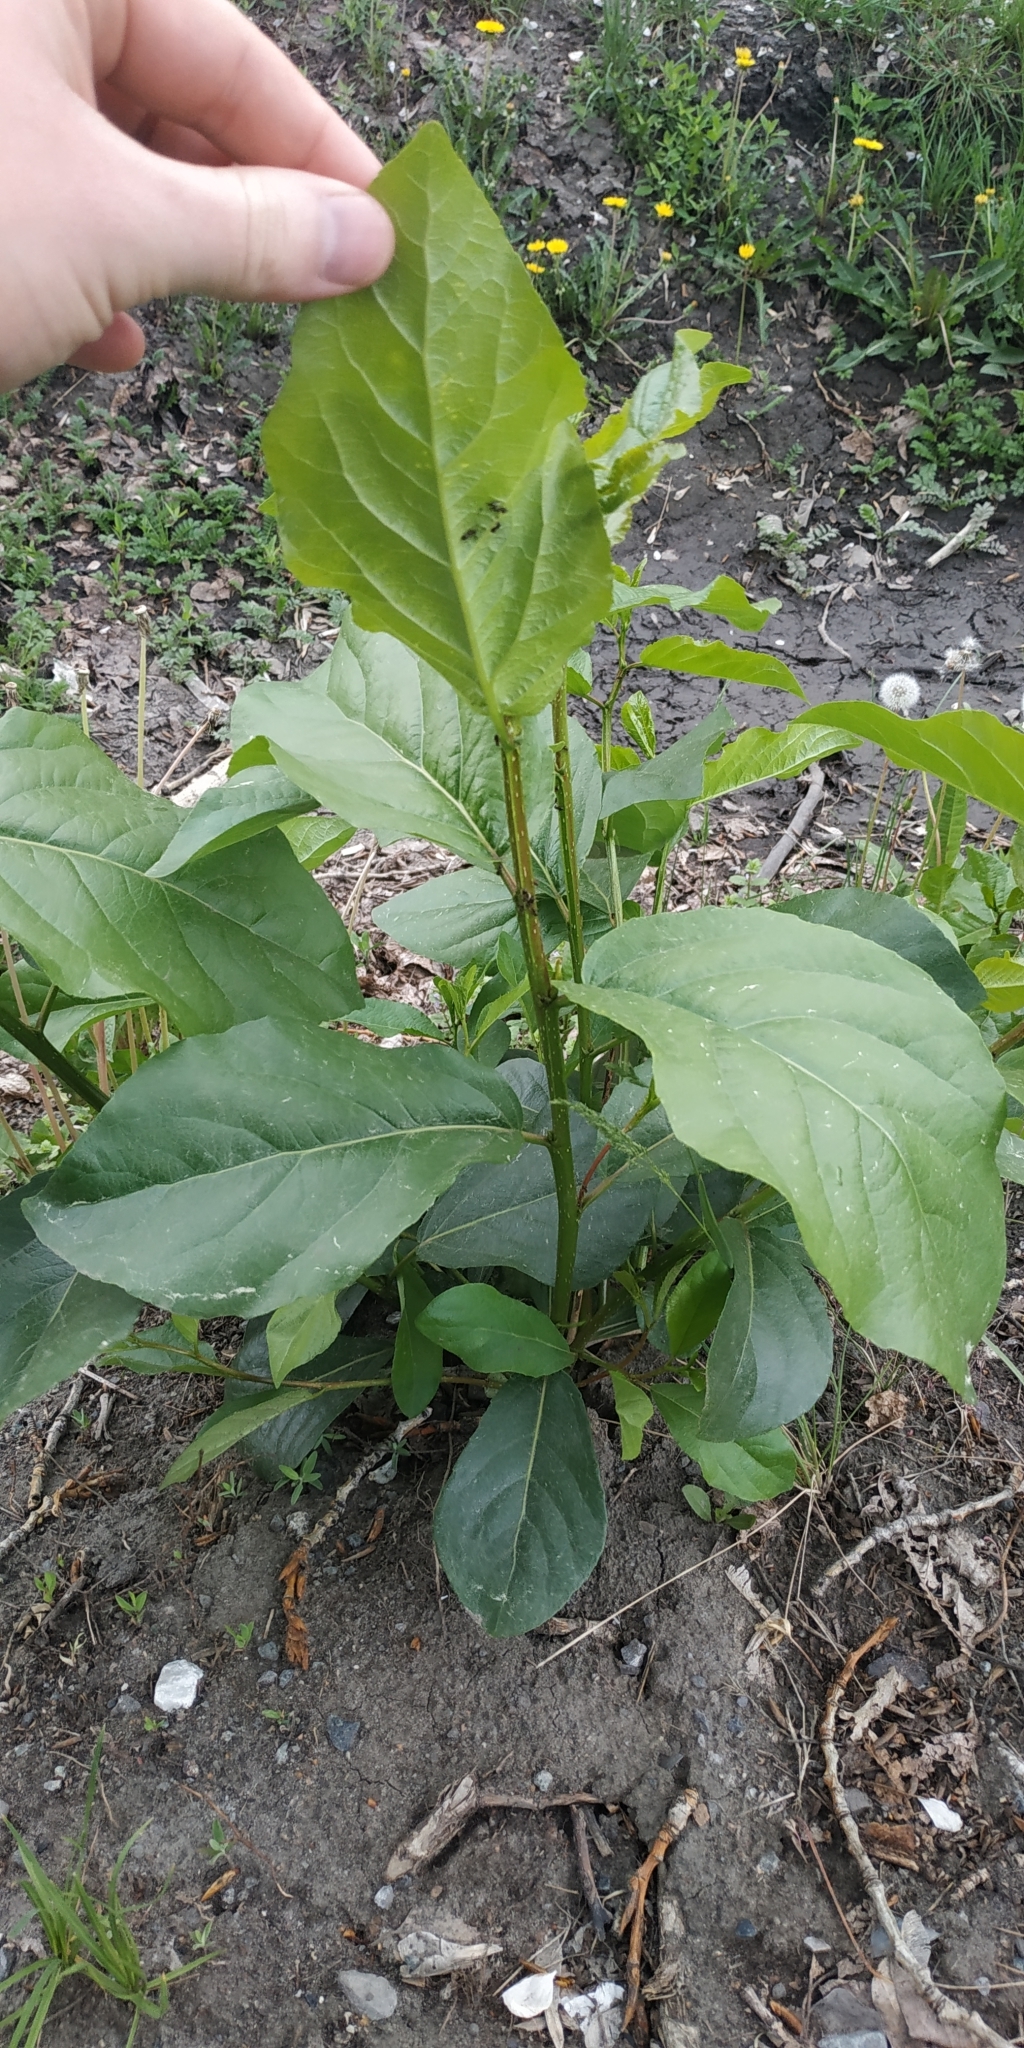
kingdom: Plantae
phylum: Tracheophyta
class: Magnoliopsida
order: Malpighiales
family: Salicaceae
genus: Populus
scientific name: Populus sibirica
